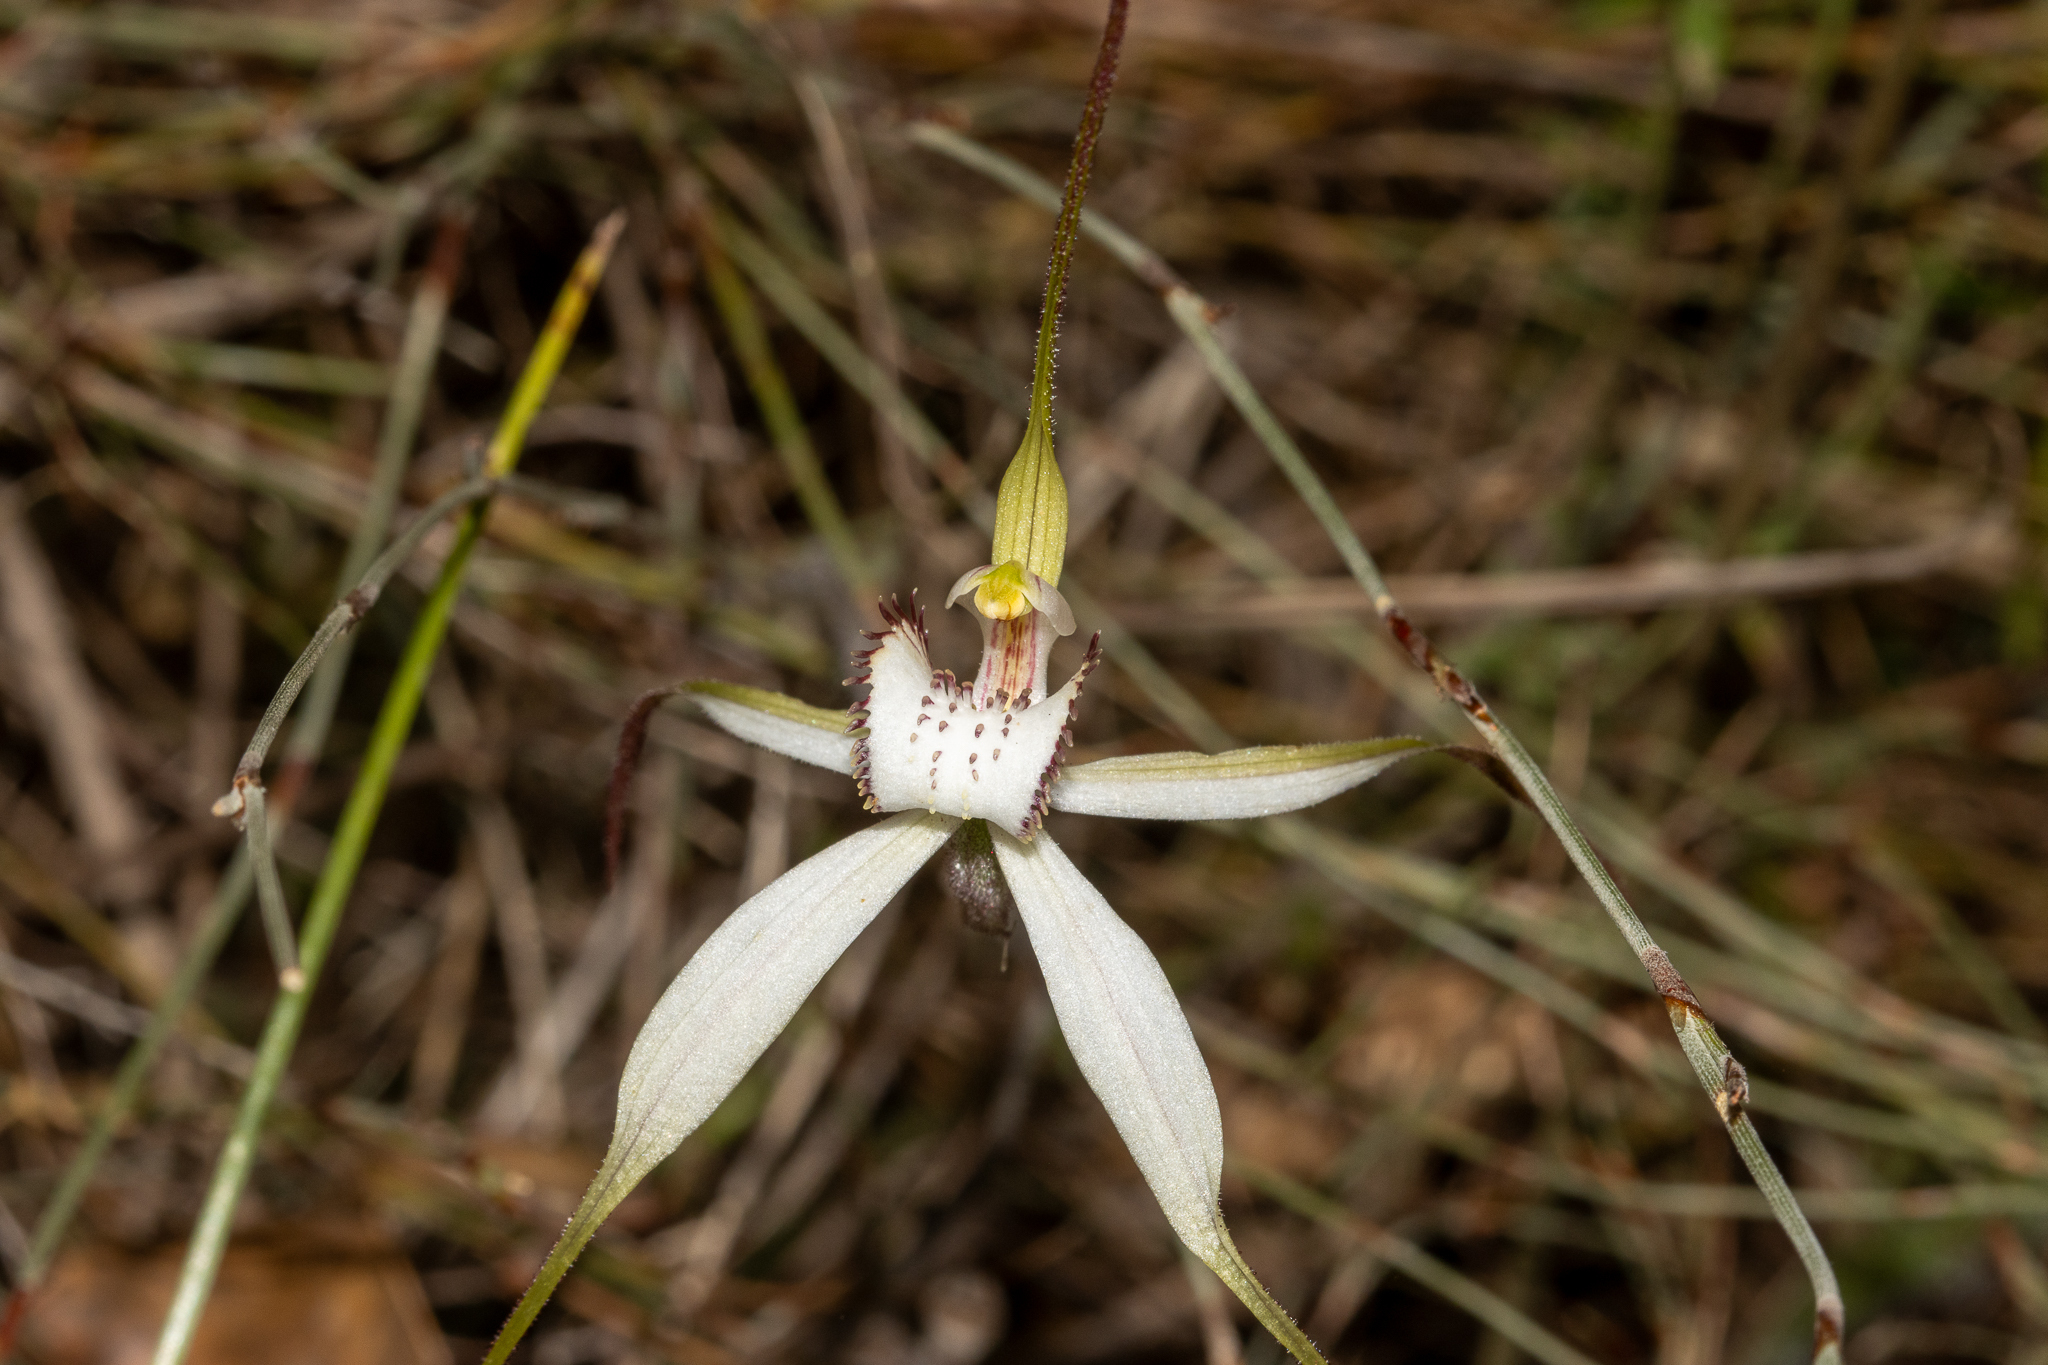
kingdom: Plantae
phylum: Tracheophyta
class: Liliopsida
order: Asparagales
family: Orchidaceae
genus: Caladenia
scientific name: Caladenia venusta
